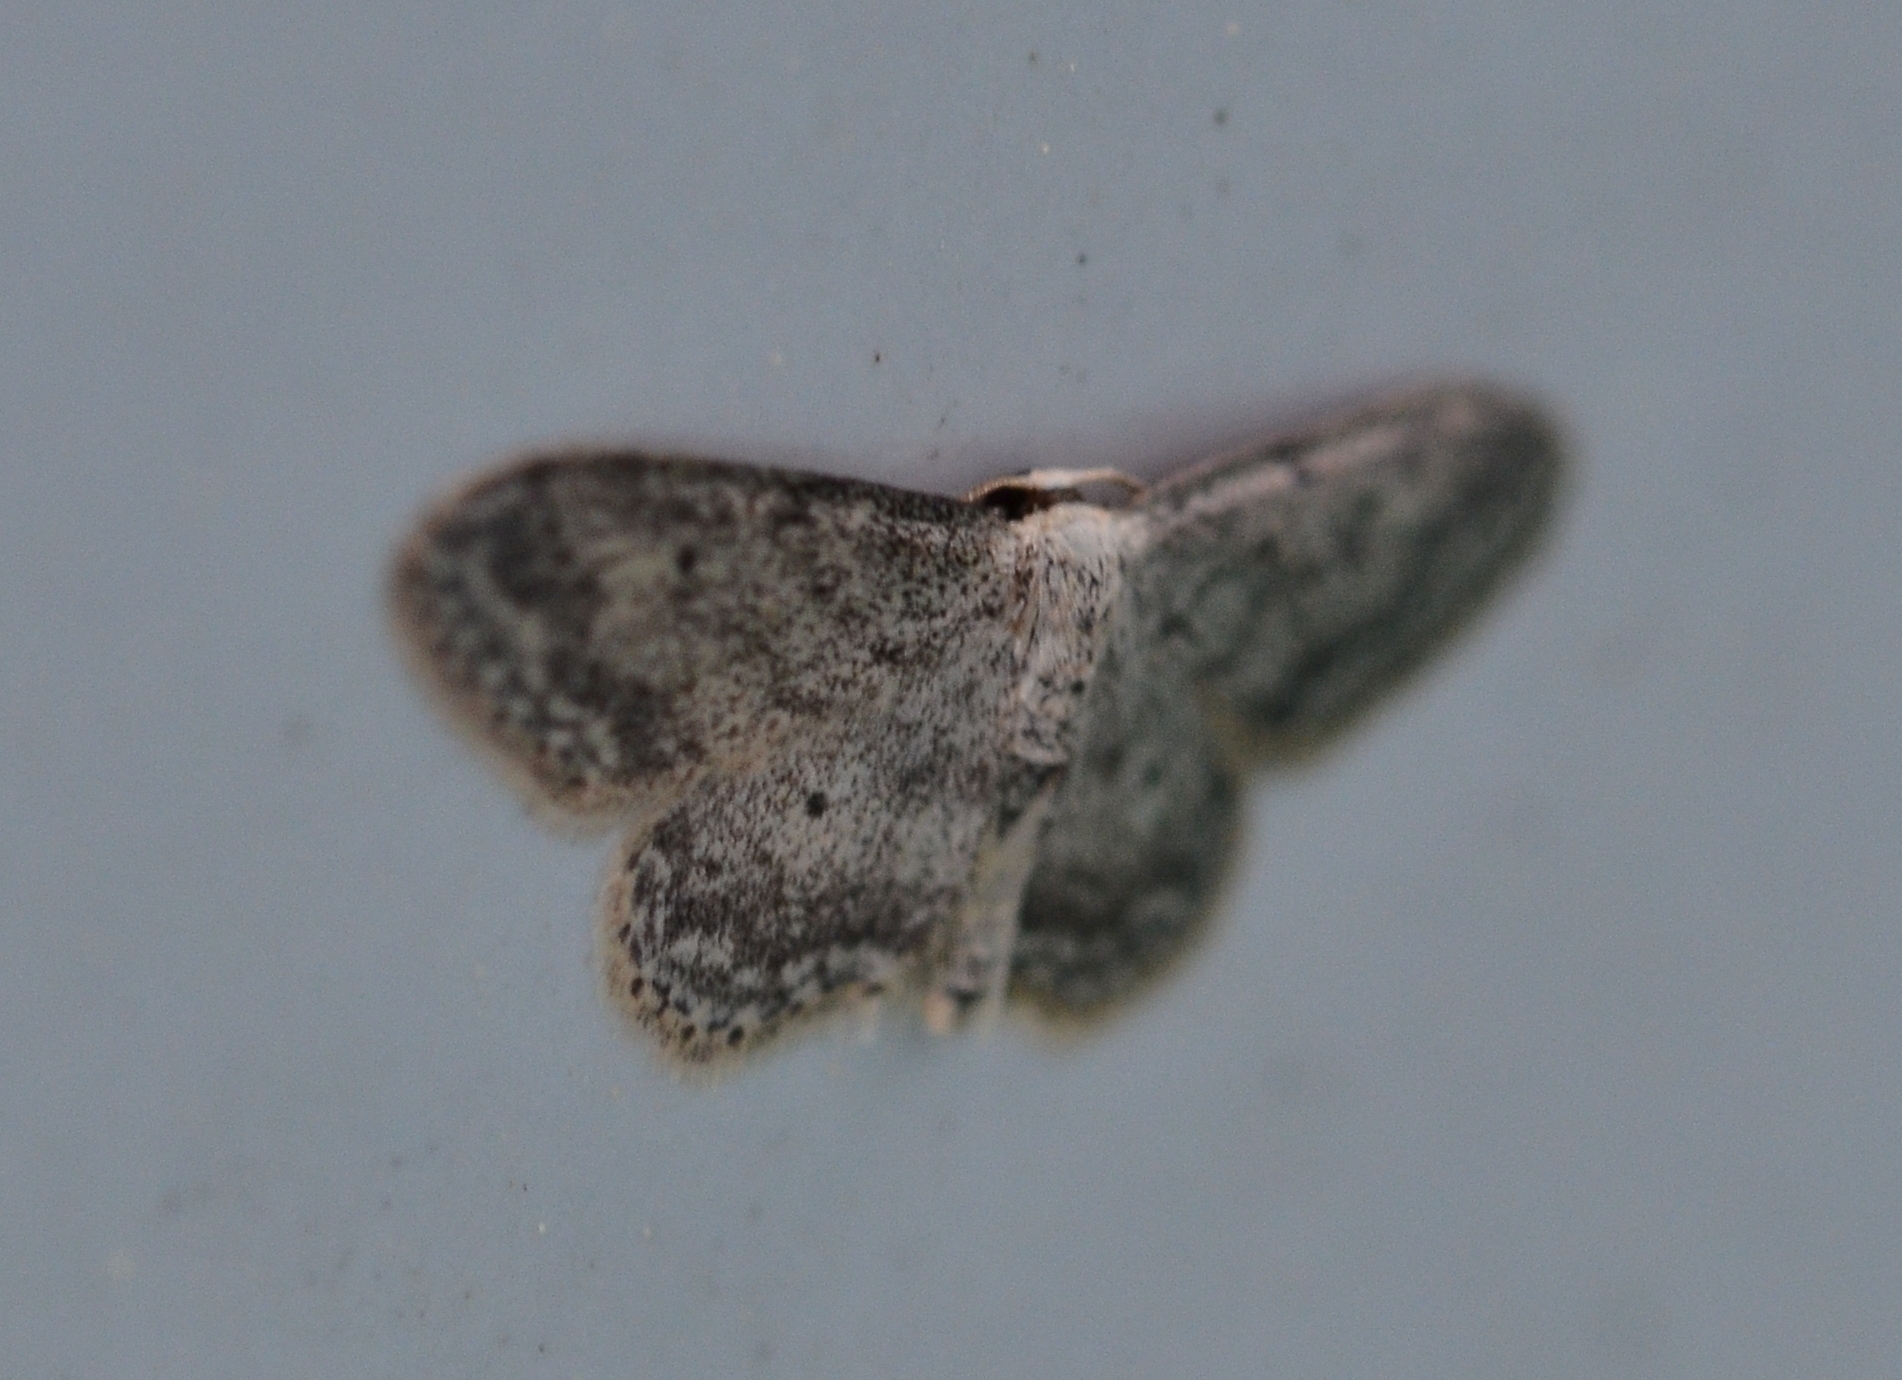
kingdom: Animalia
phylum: Arthropoda
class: Insecta
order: Lepidoptera
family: Geometridae
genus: Idaea
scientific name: Idaea seriata
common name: Small dusty wave
